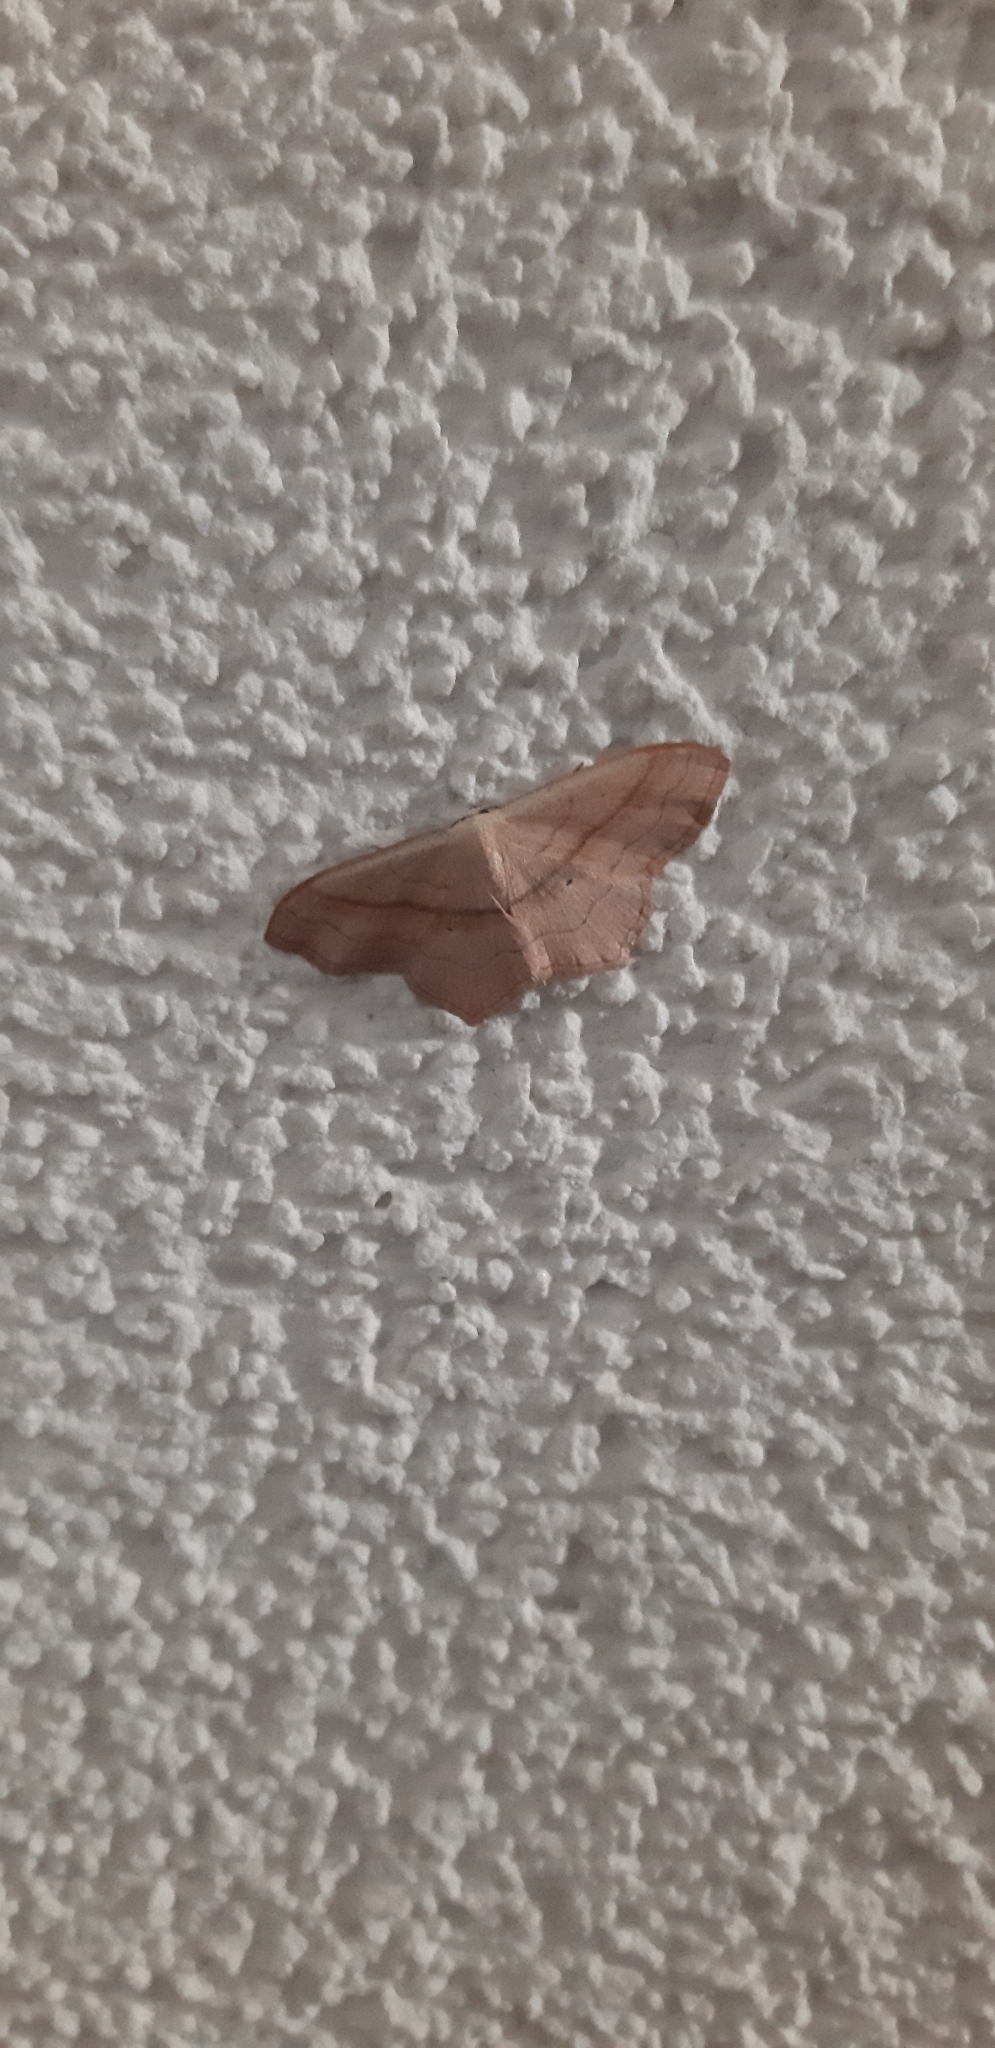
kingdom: Animalia
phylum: Arthropoda
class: Insecta
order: Lepidoptera
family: Geometridae
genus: Scopula
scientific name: Scopula imitaria
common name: Small blood-vein
